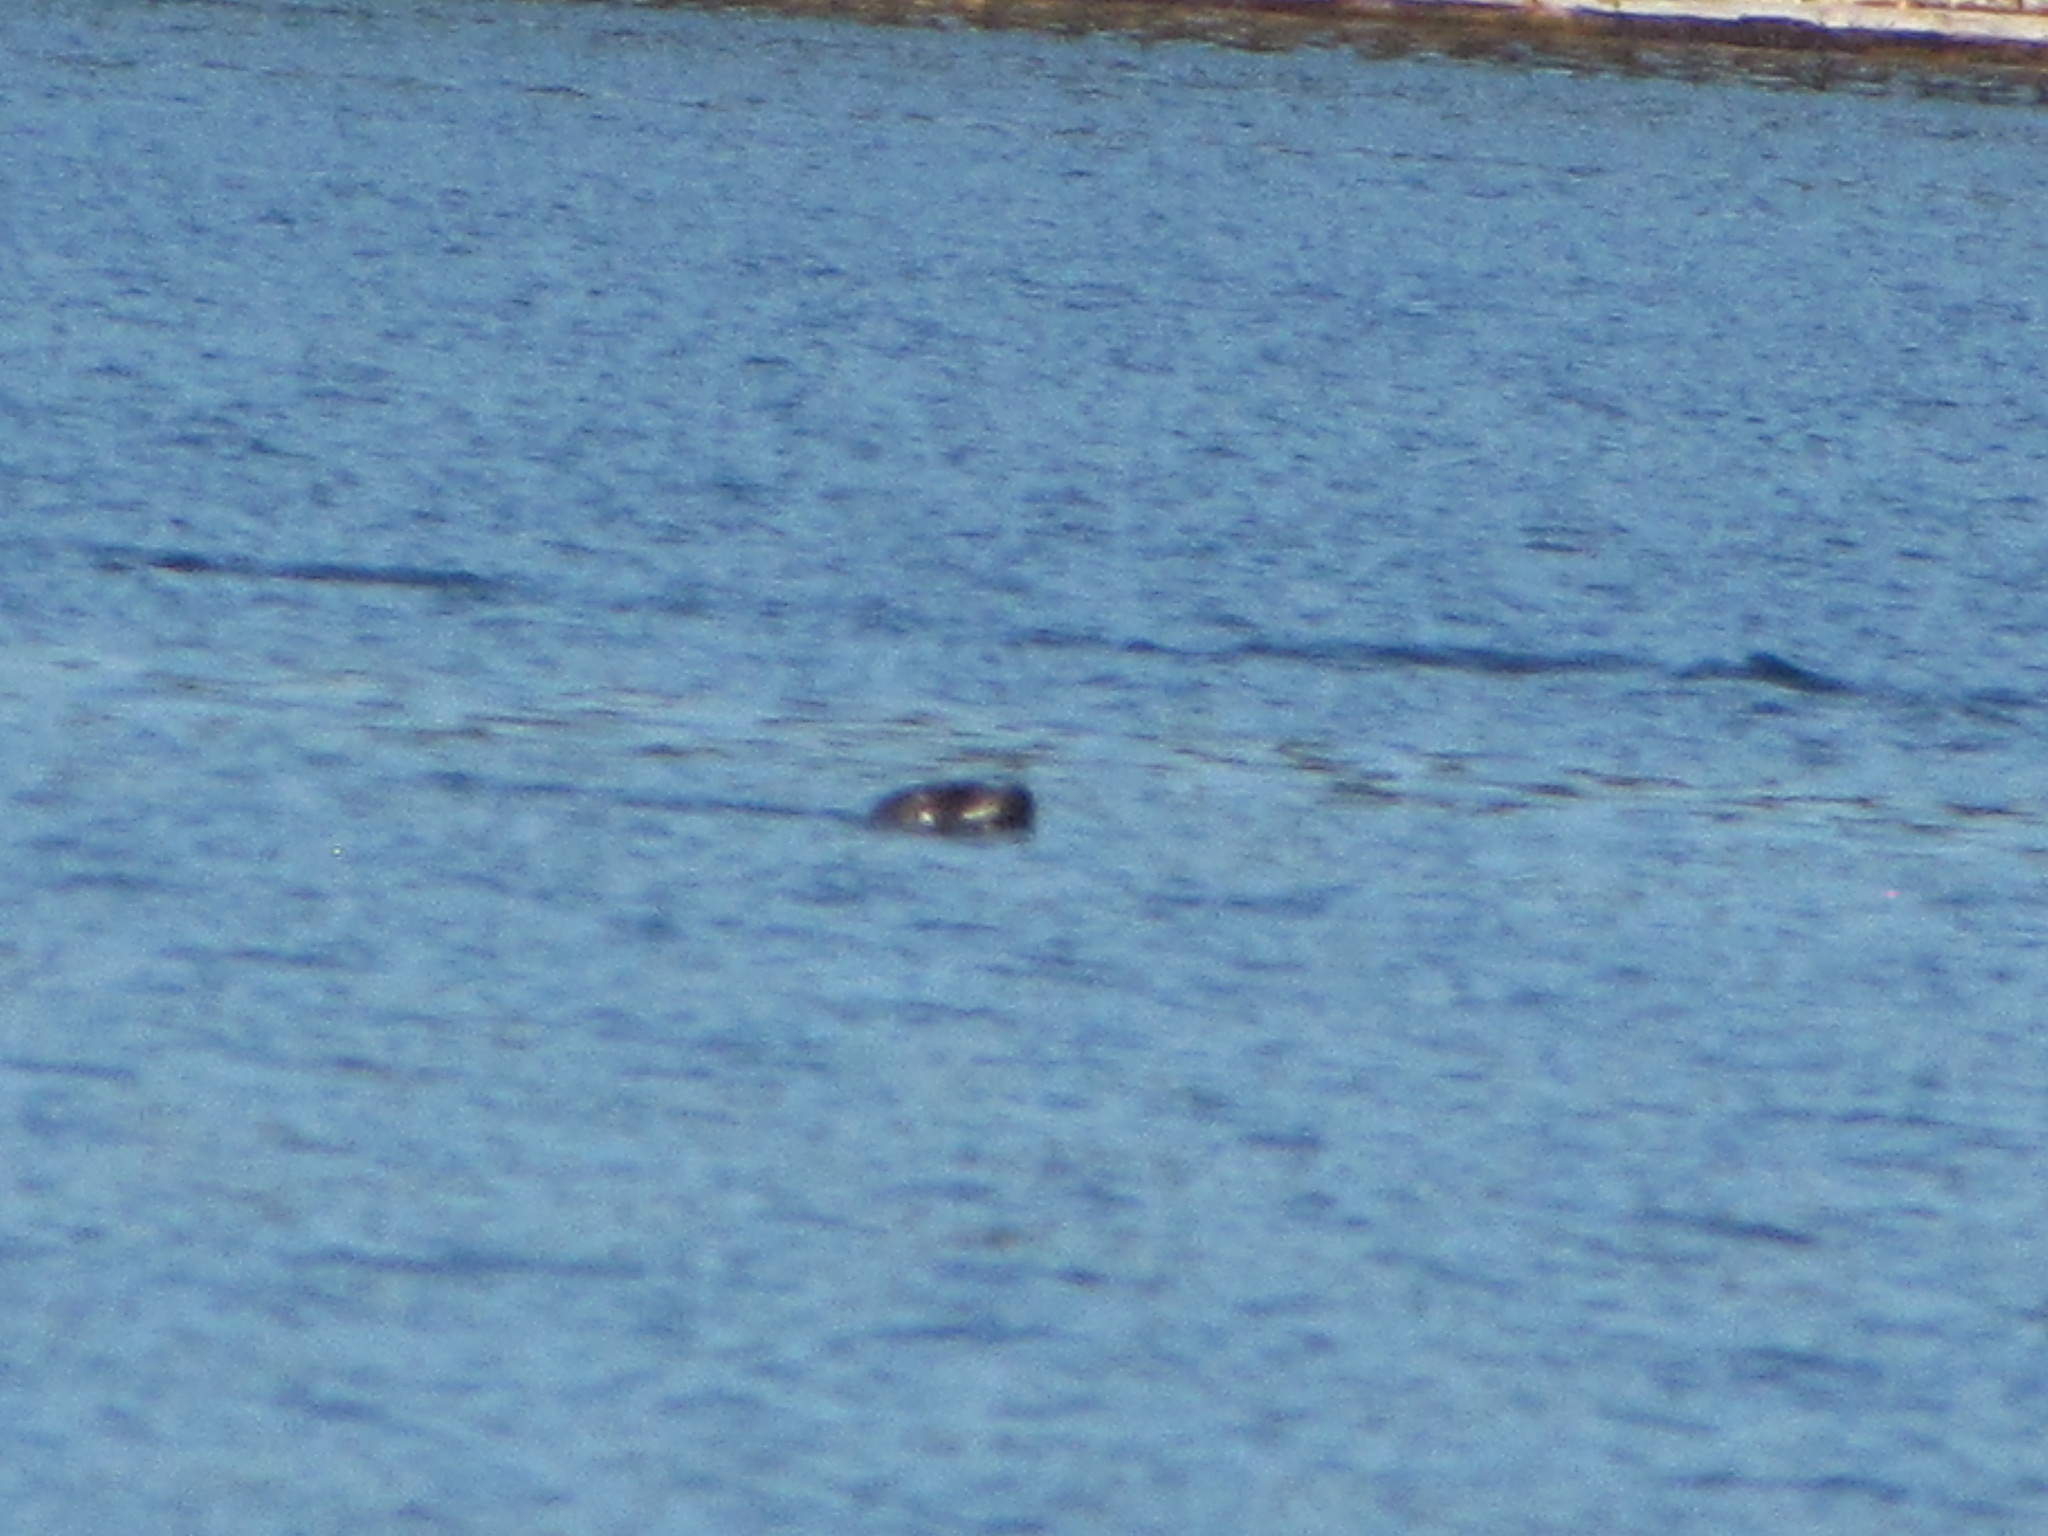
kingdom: Animalia
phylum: Chordata
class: Mammalia
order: Carnivora
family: Phocidae
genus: Phoca
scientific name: Phoca vitulina
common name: Harbor seal
